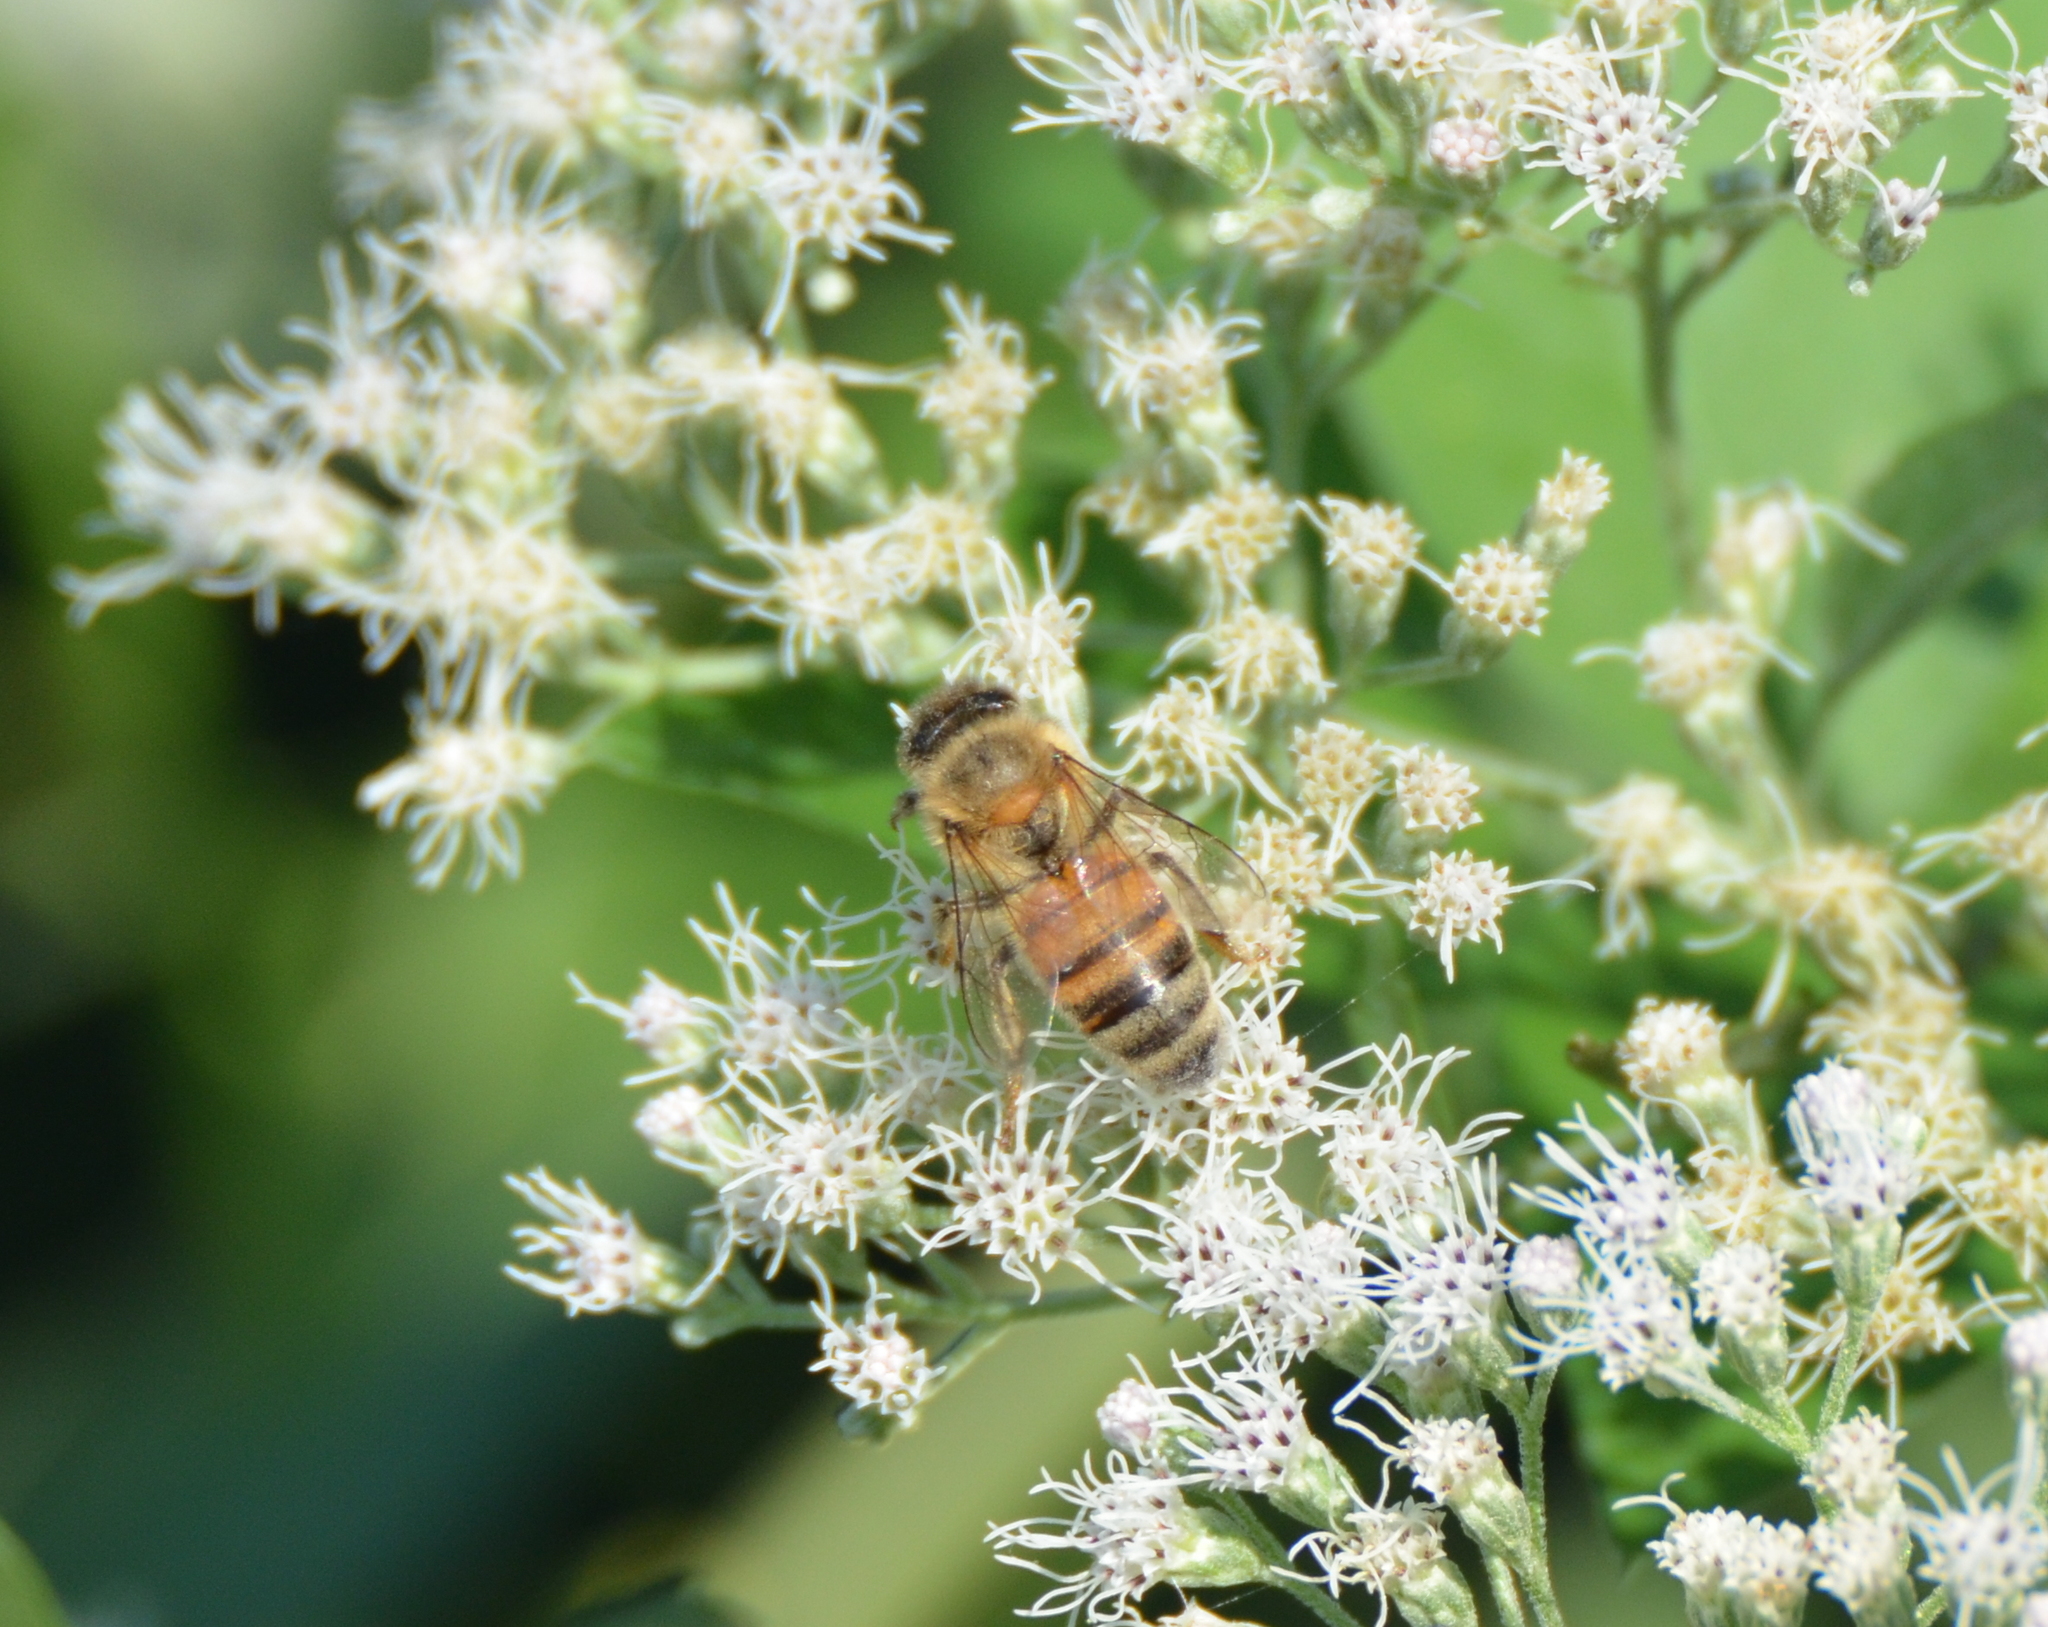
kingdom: Animalia
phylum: Arthropoda
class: Insecta
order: Hymenoptera
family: Apidae
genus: Apis
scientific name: Apis mellifera
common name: Honey bee
